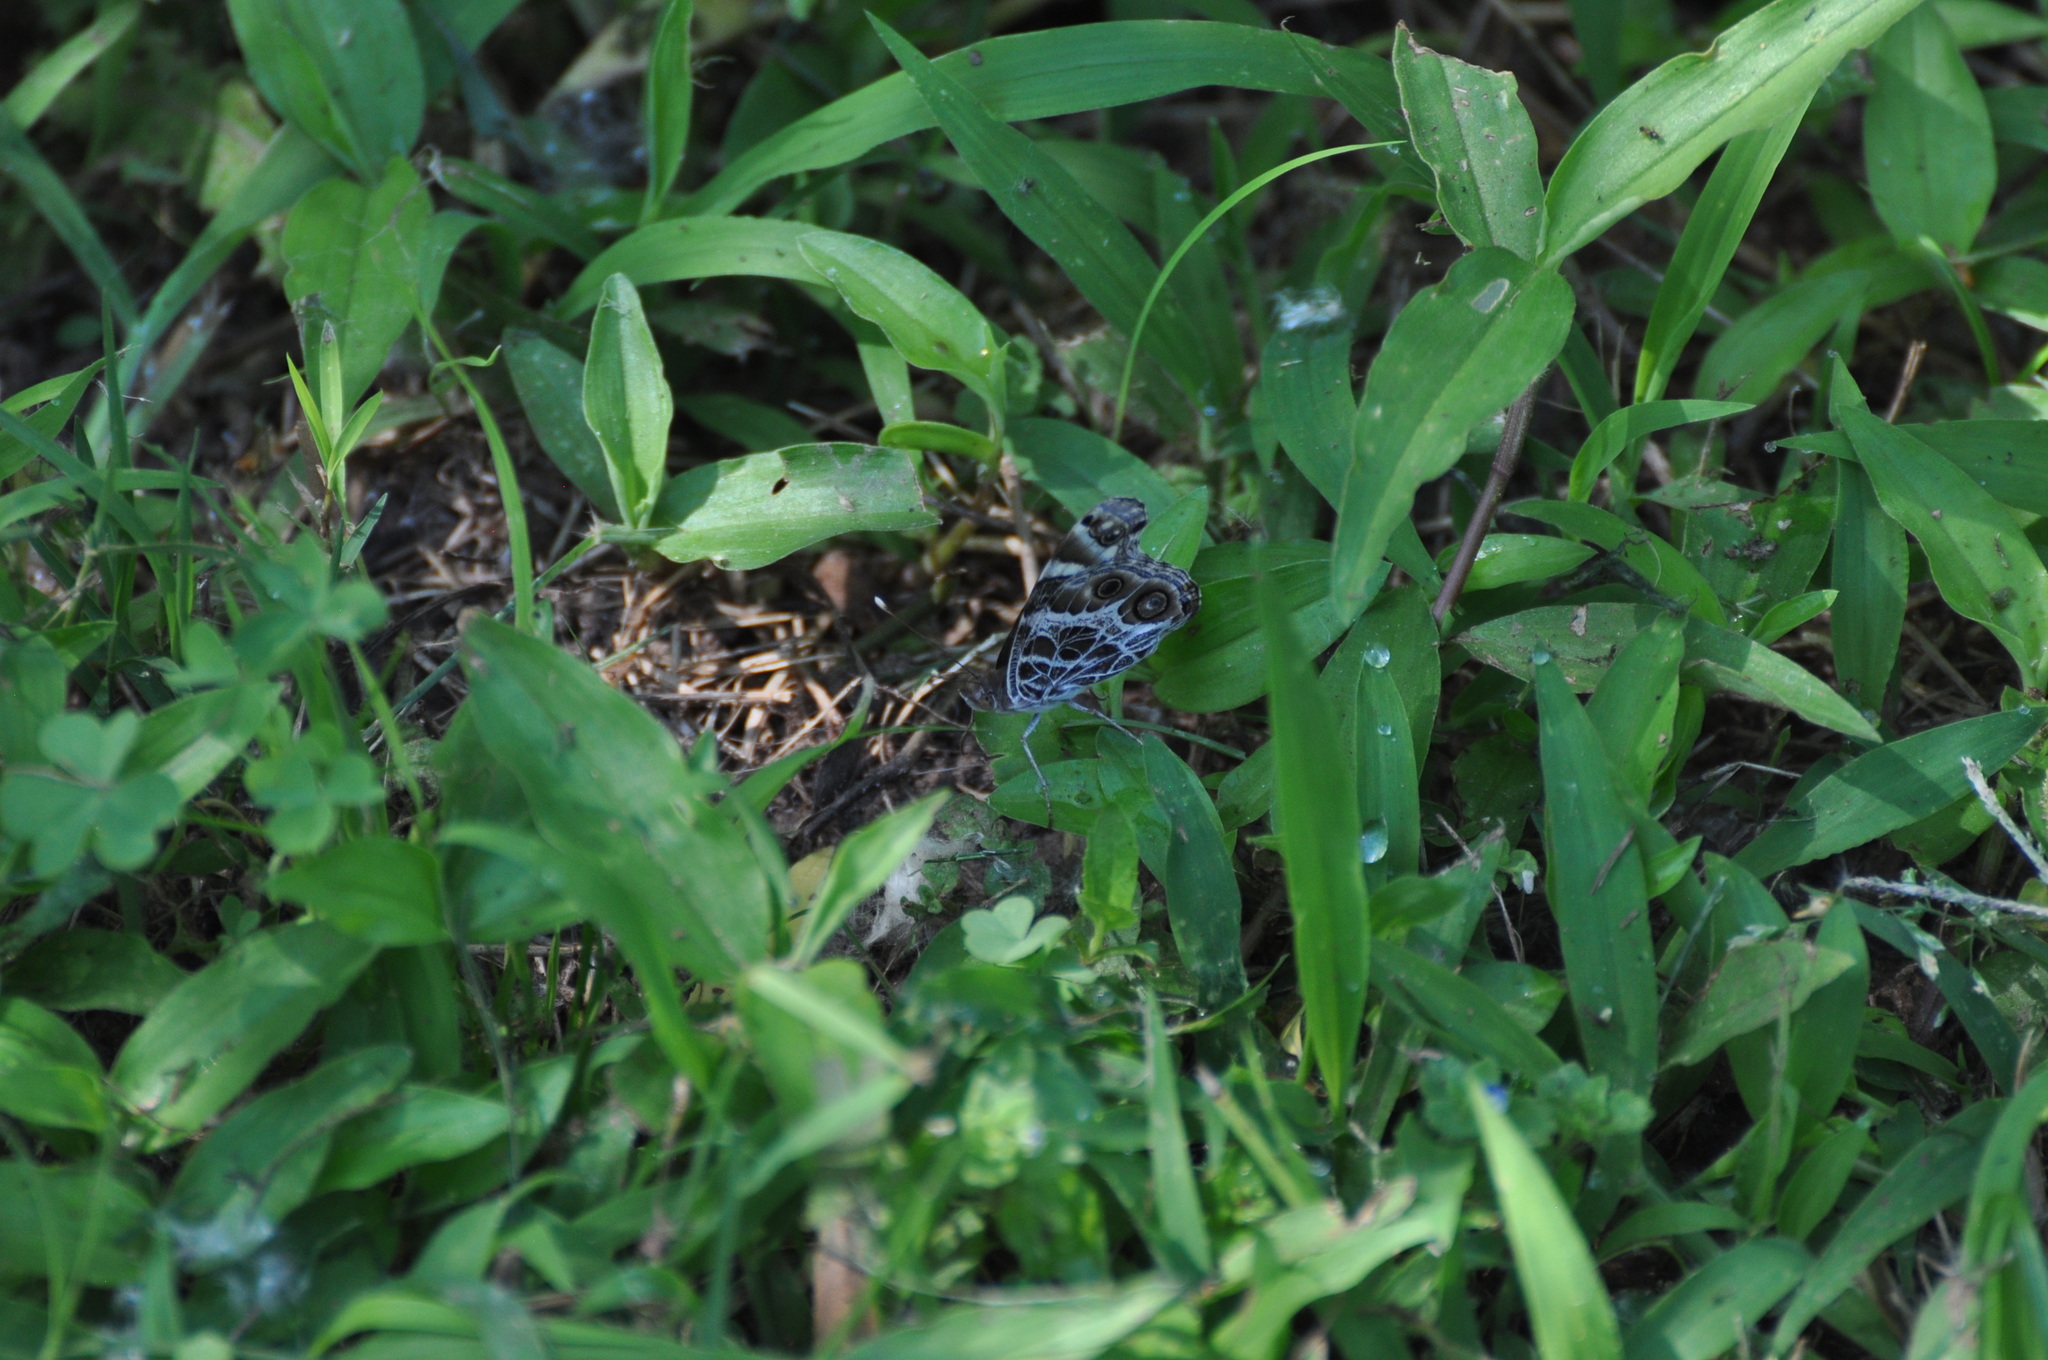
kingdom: Animalia
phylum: Arthropoda
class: Insecta
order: Lepidoptera
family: Nymphalidae
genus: Vanessa
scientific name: Vanessa virginiensis
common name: American lady
